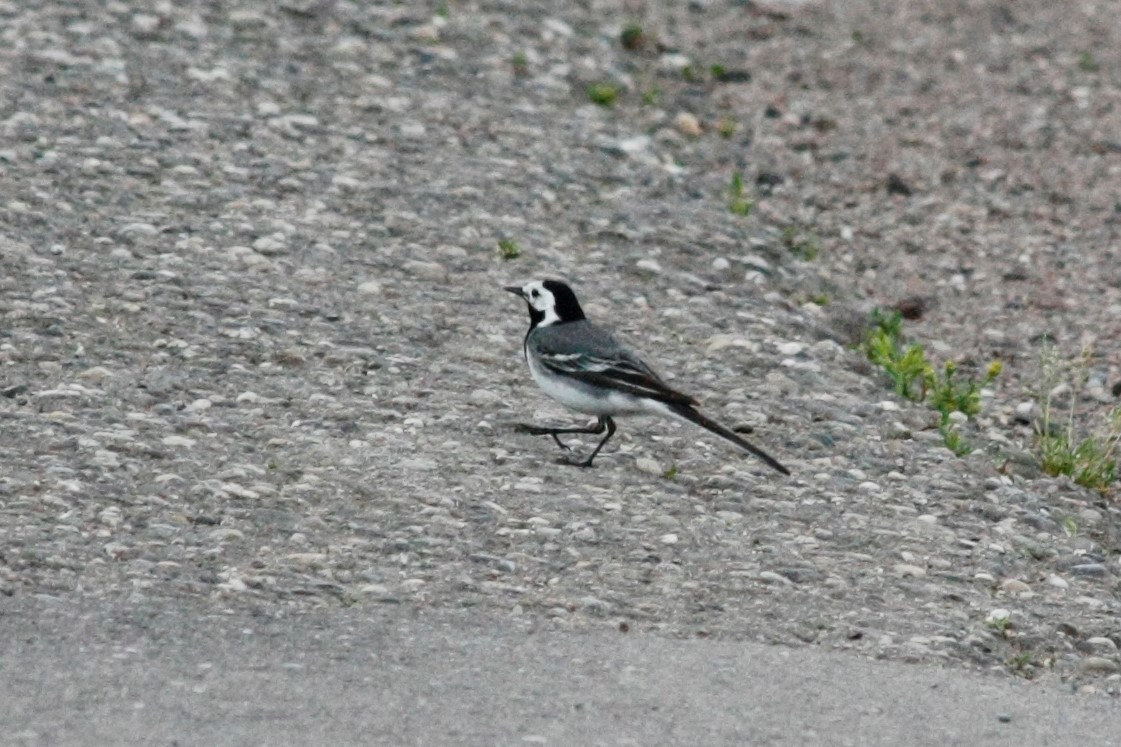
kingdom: Animalia
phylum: Chordata
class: Aves
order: Passeriformes
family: Motacillidae
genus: Motacilla
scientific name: Motacilla alba
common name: White wagtail
